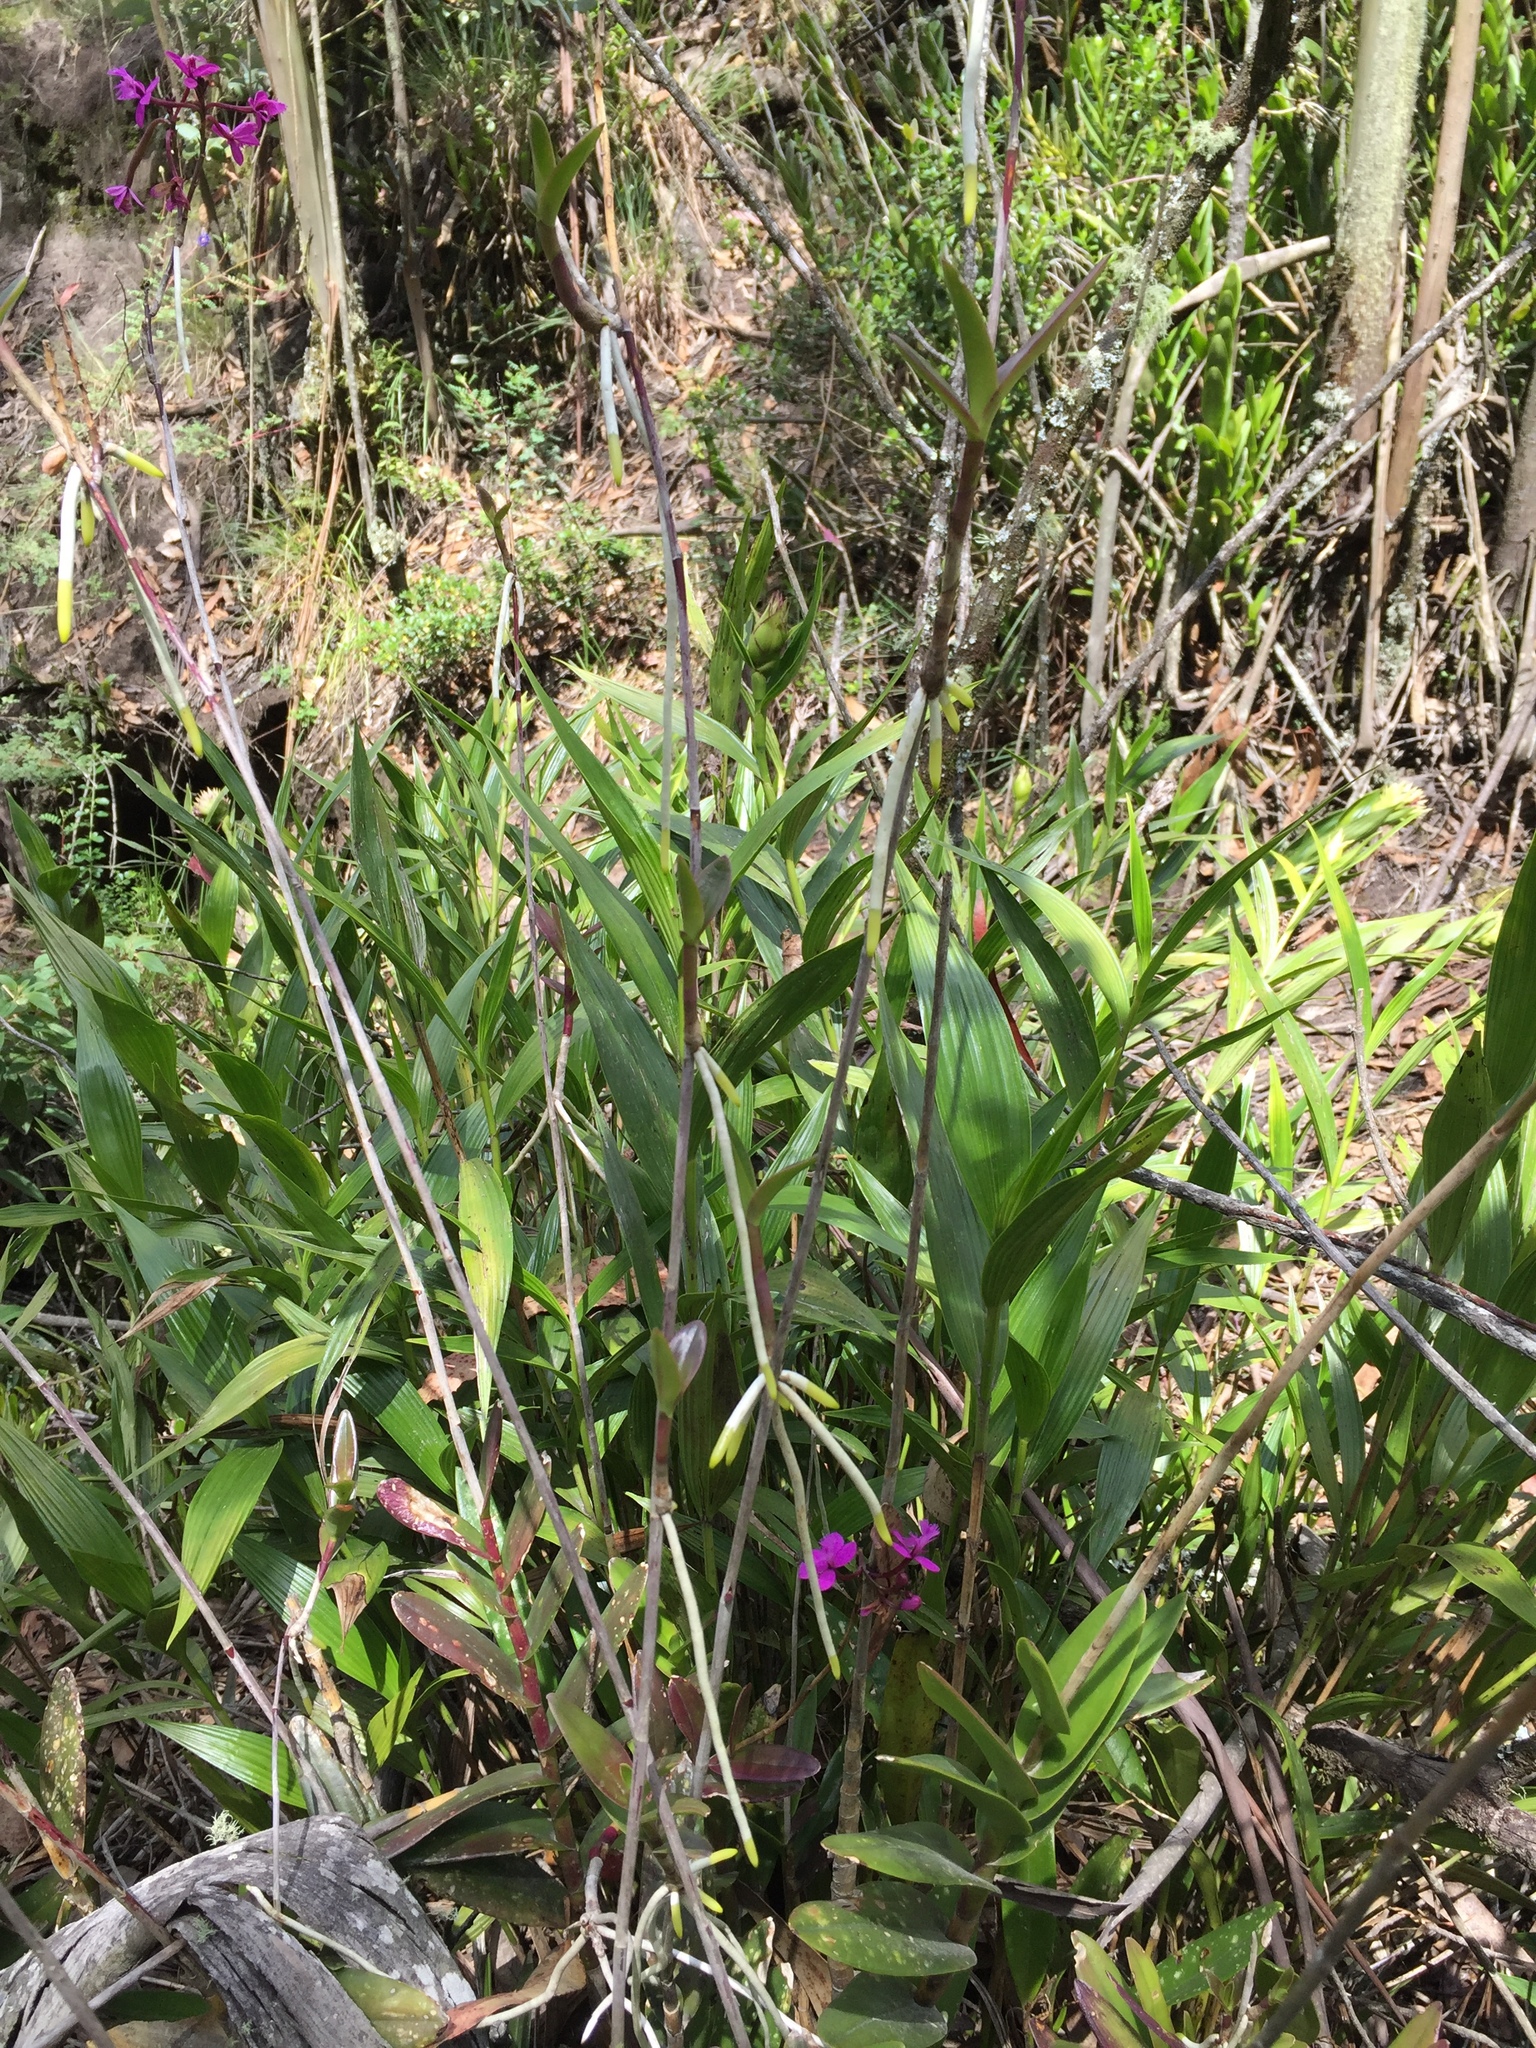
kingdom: Plantae
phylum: Tracheophyta
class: Liliopsida
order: Asparagales
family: Orchidaceae
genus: Epidendrum
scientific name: Epidendrum jamiesonis
